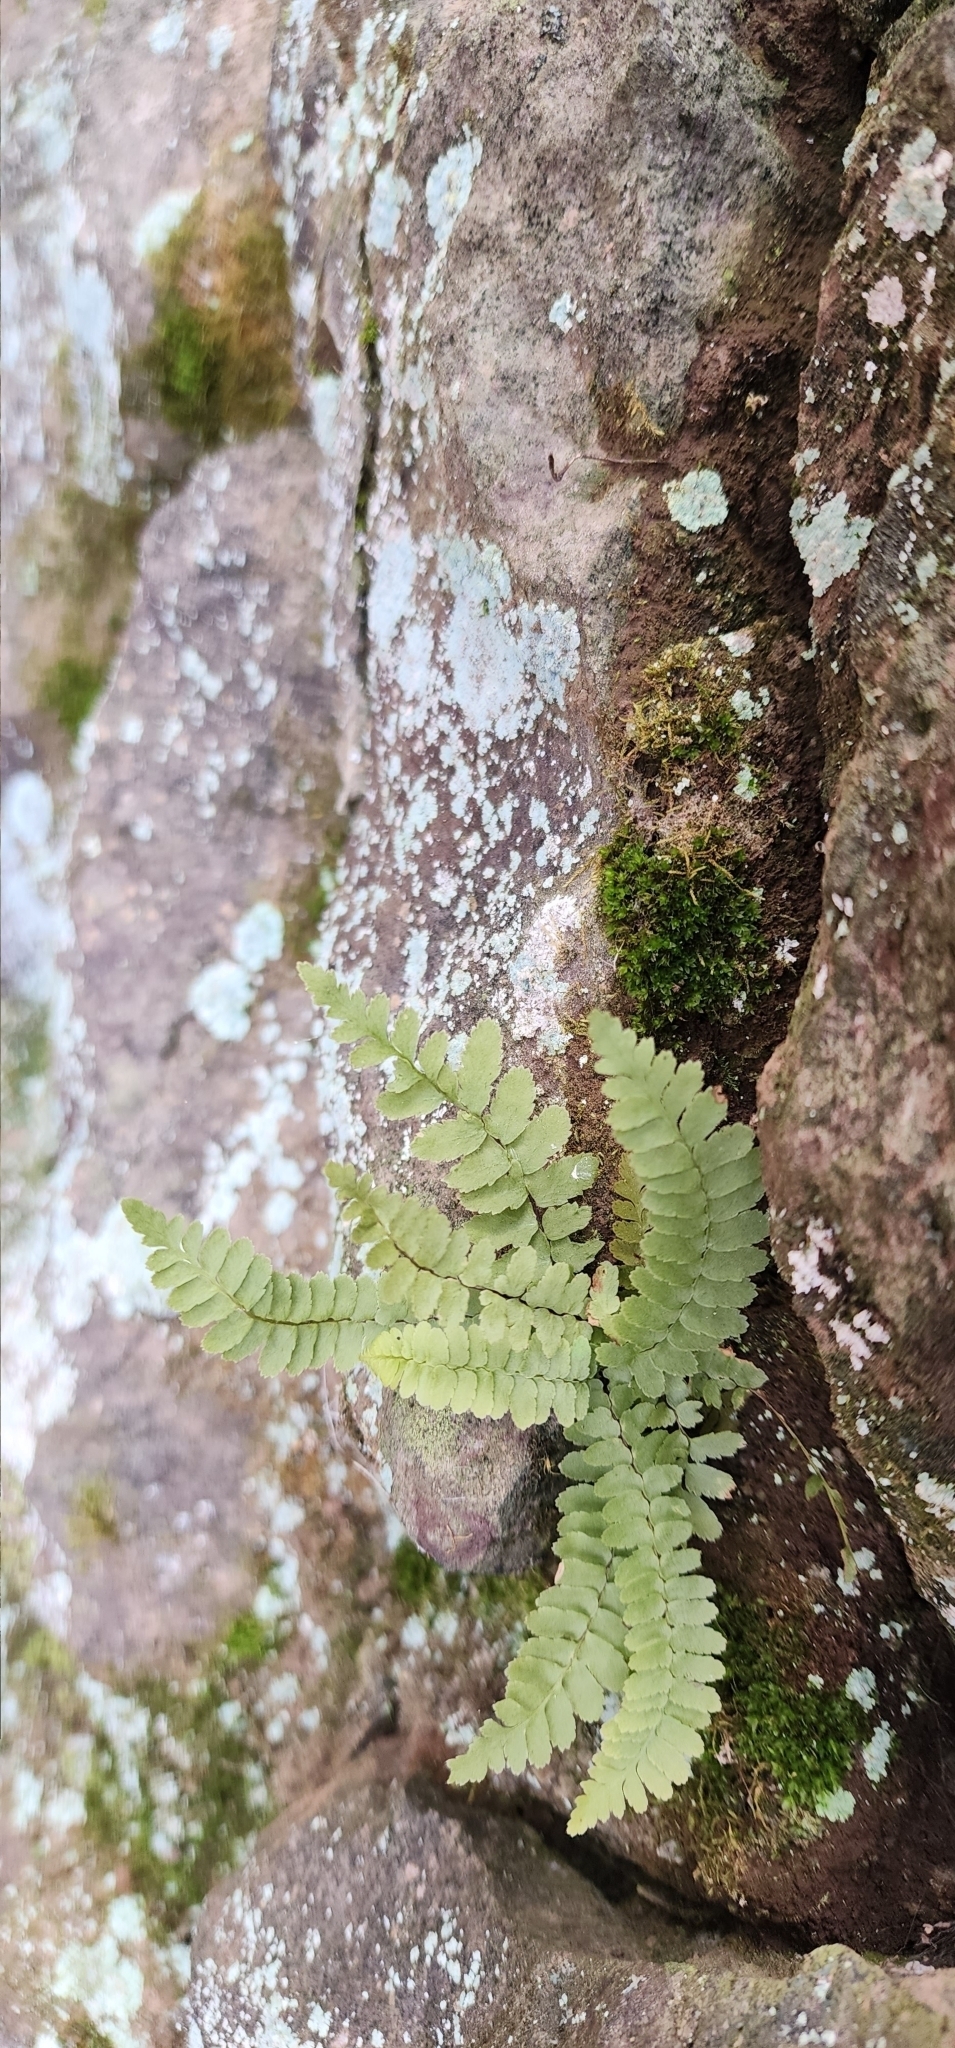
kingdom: Plantae
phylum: Tracheophyta
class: Polypodiopsida
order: Polypodiales
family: Aspleniaceae
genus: Asplenium
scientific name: Asplenium platyneuron
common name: Ebony spleenwort
